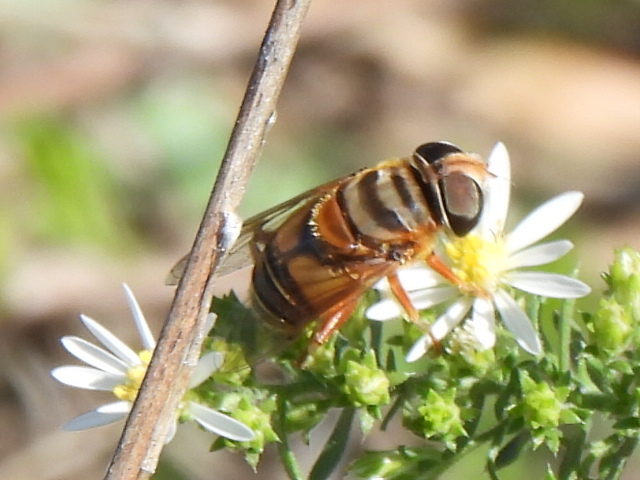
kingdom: Animalia
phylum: Arthropoda
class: Insecta
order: Diptera
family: Syrphidae
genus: Palpada
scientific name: Palpada vinetorum
